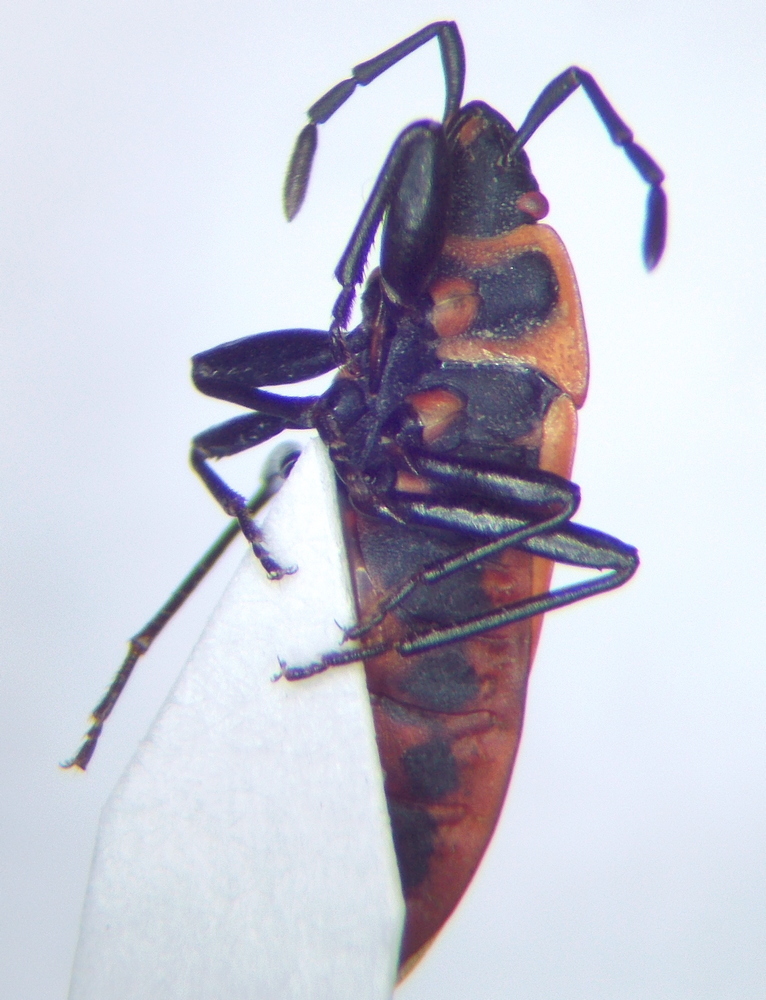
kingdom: Animalia
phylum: Arthropoda
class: Insecta
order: Hemiptera
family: Pyrrhocoridae
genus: Scantius
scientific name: Scantius aegyptius
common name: Red bug
